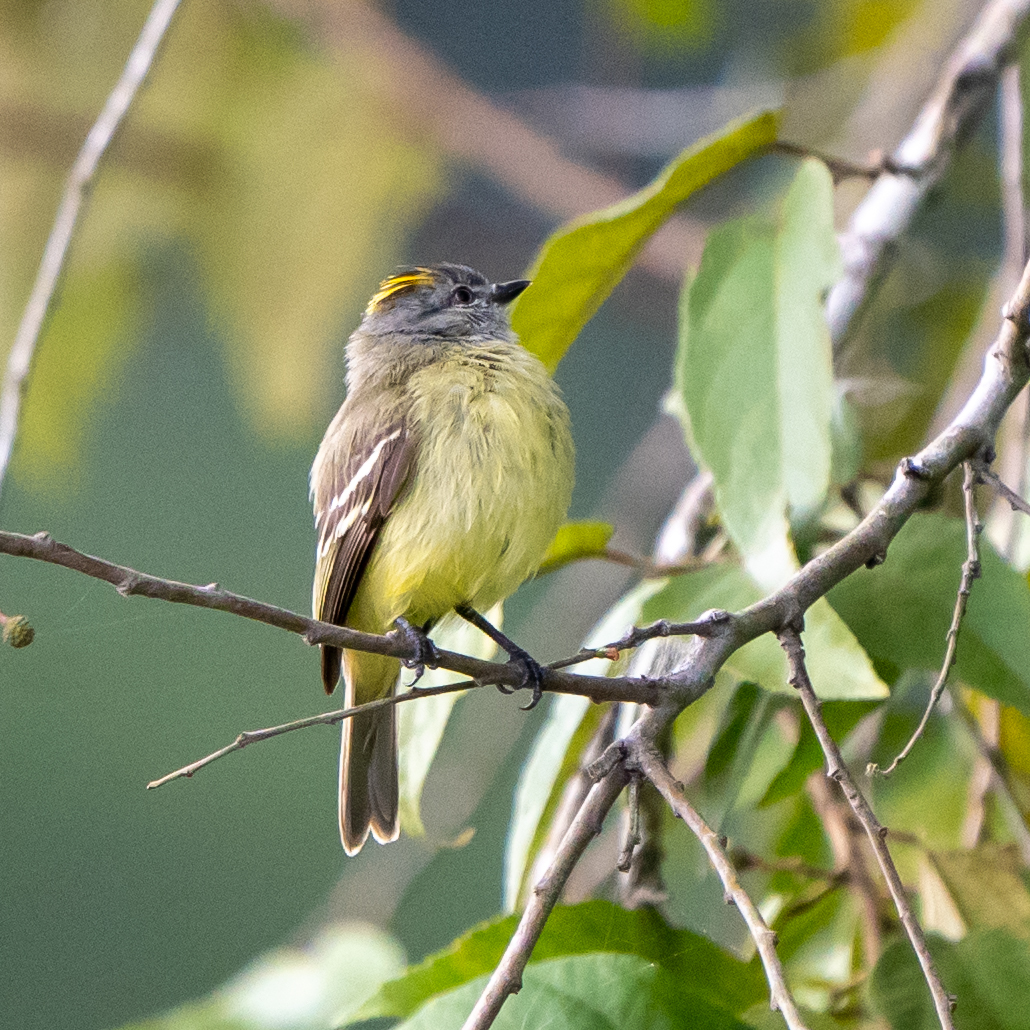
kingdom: Animalia
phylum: Chordata
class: Aves
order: Passeriformes
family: Tyrannidae
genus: Tyrannulus
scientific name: Tyrannulus elatus
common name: Yellow-crowned tyrannulet
